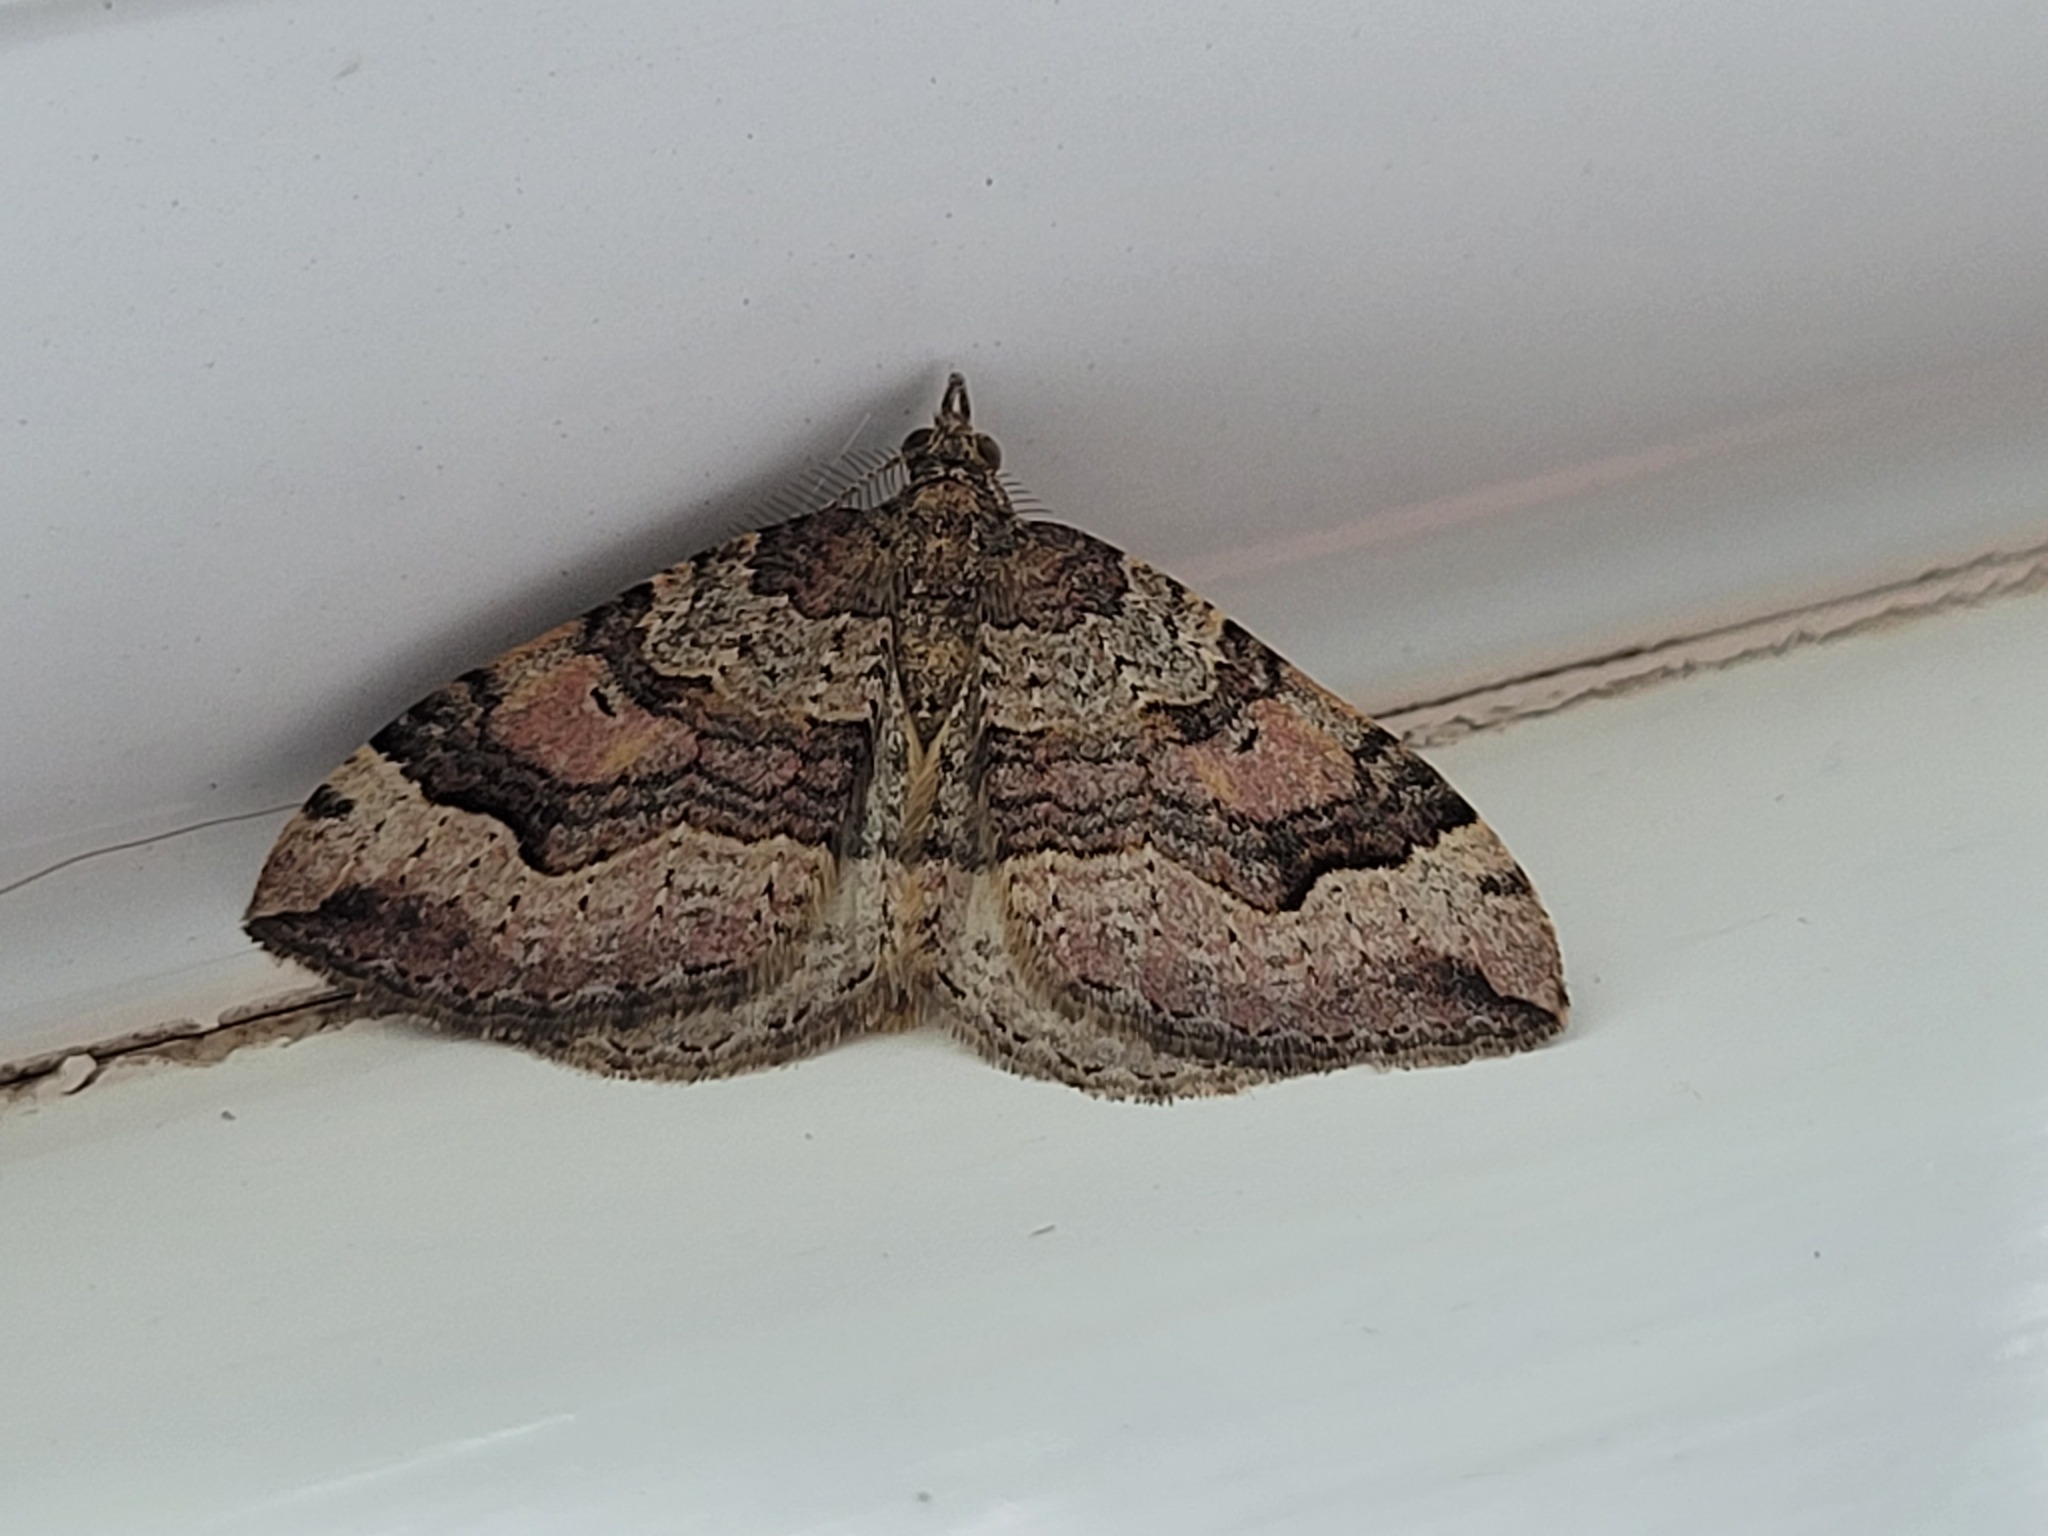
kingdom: Animalia
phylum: Arthropoda
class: Insecta
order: Lepidoptera
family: Geometridae
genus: Epyaxa
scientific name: Epyaxa rosearia
